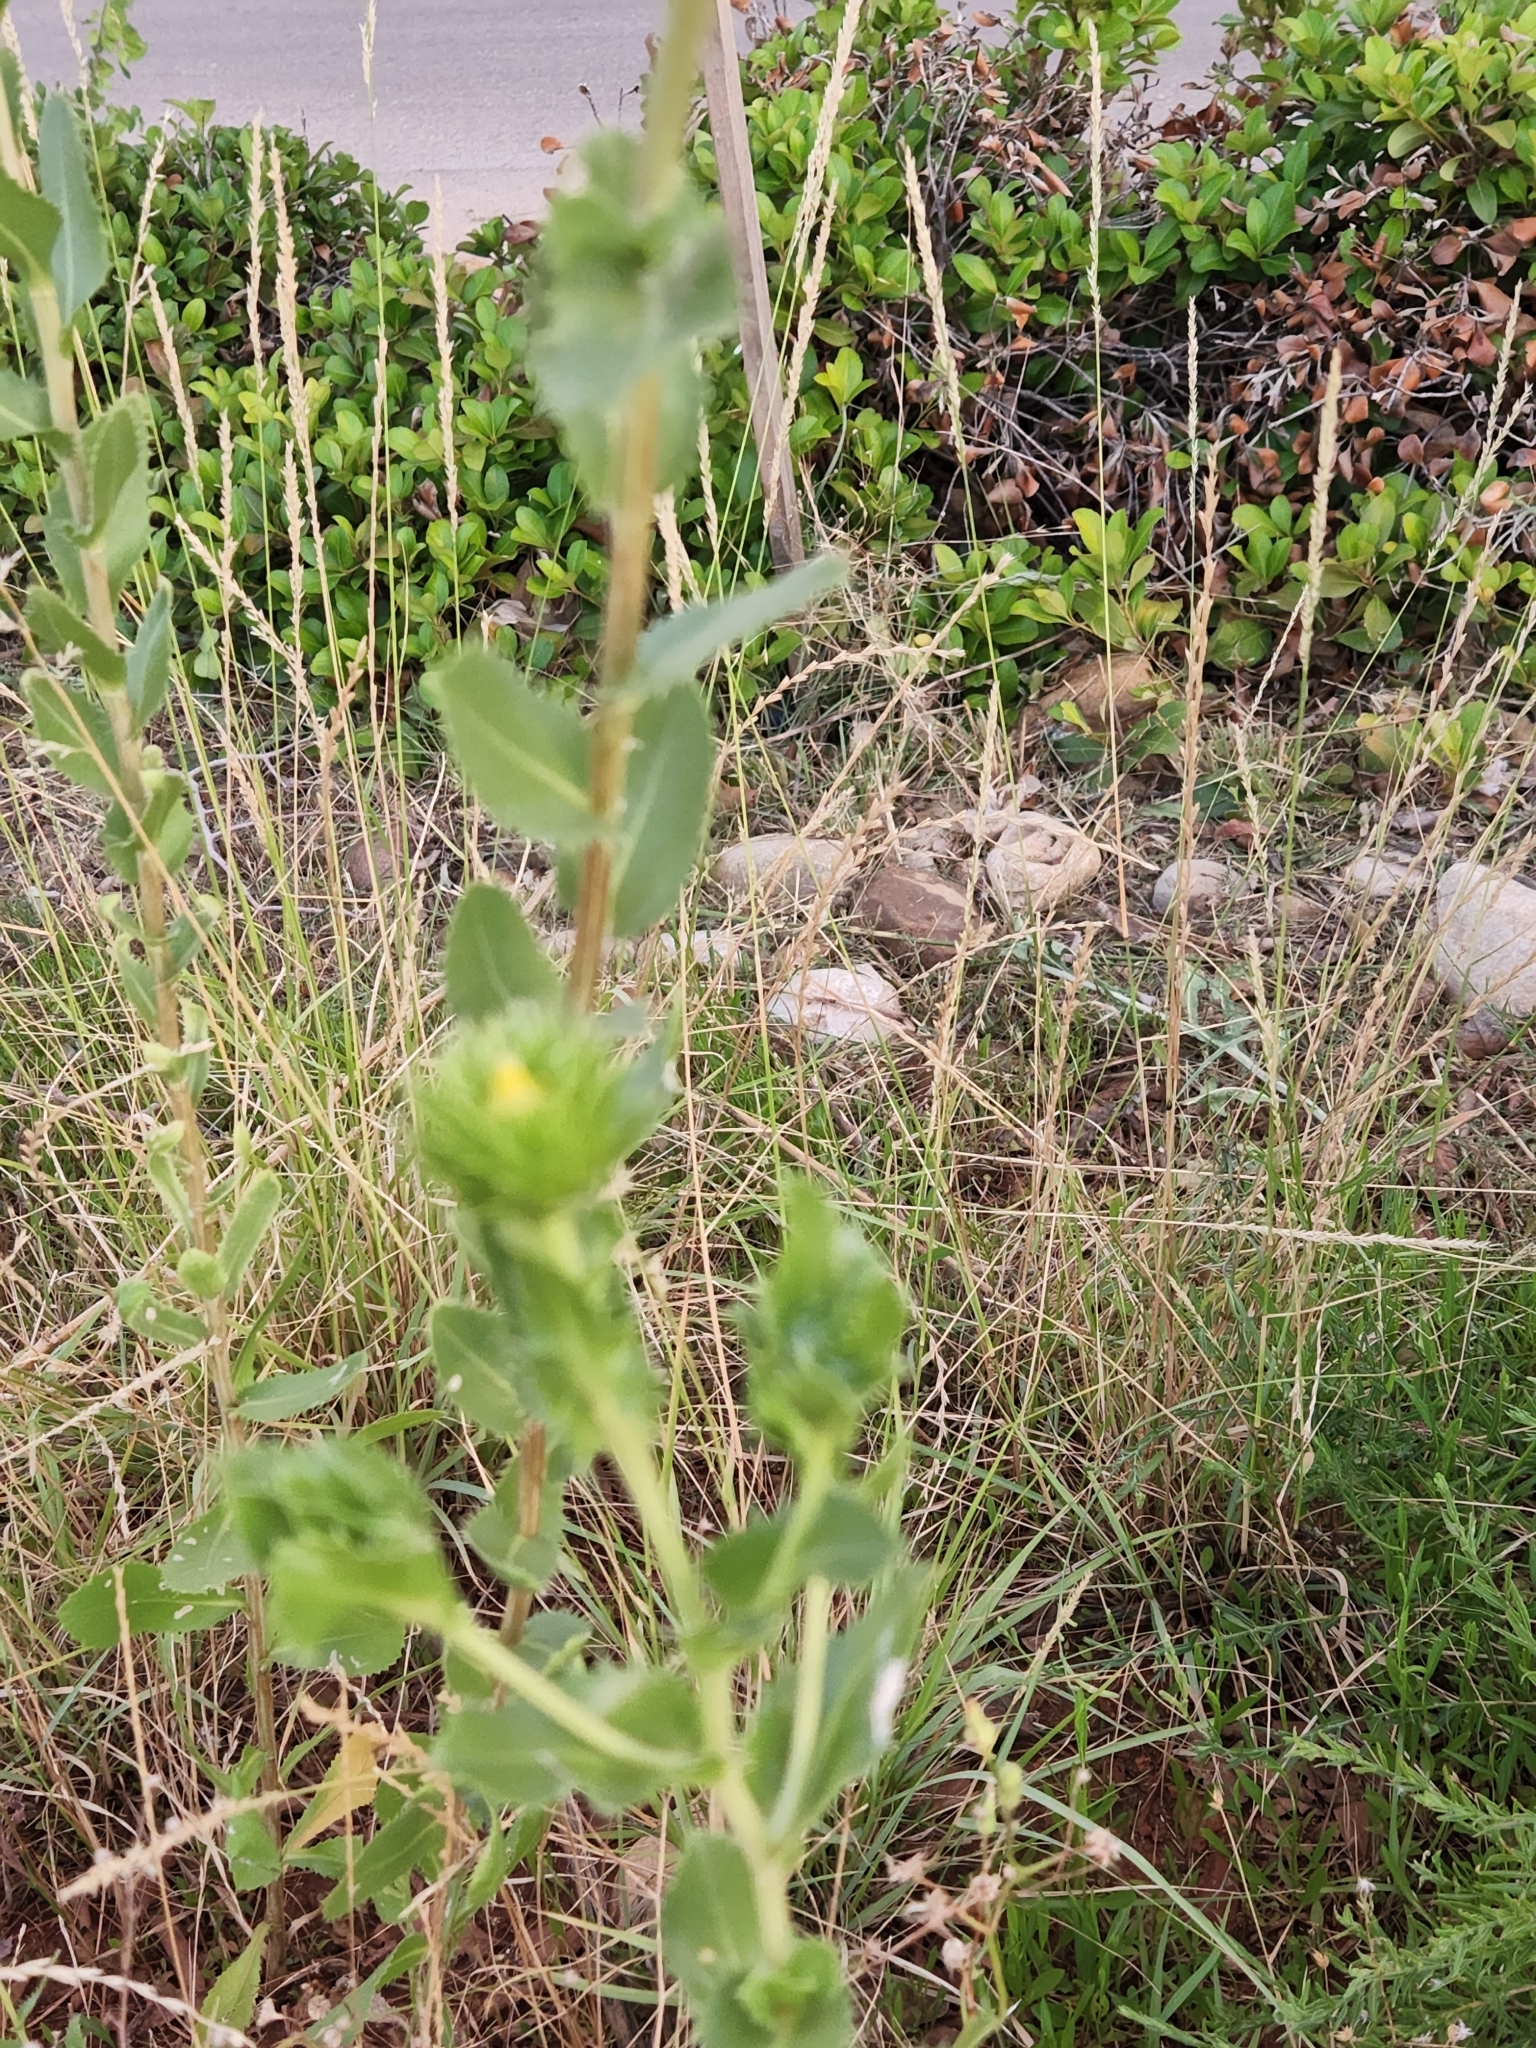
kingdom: Plantae
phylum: Tracheophyta
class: Magnoliopsida
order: Asterales
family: Asteraceae
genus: Grindelia
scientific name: Grindelia ciliata
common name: Goldenweed
